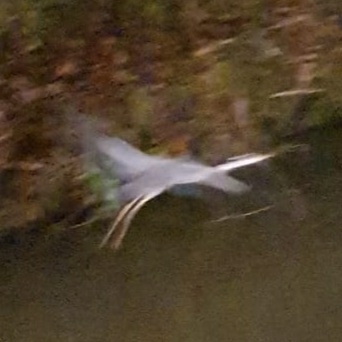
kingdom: Animalia
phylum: Chordata
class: Aves
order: Pelecaniformes
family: Ardeidae
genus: Ardea
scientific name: Ardea cinerea
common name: Grey heron
